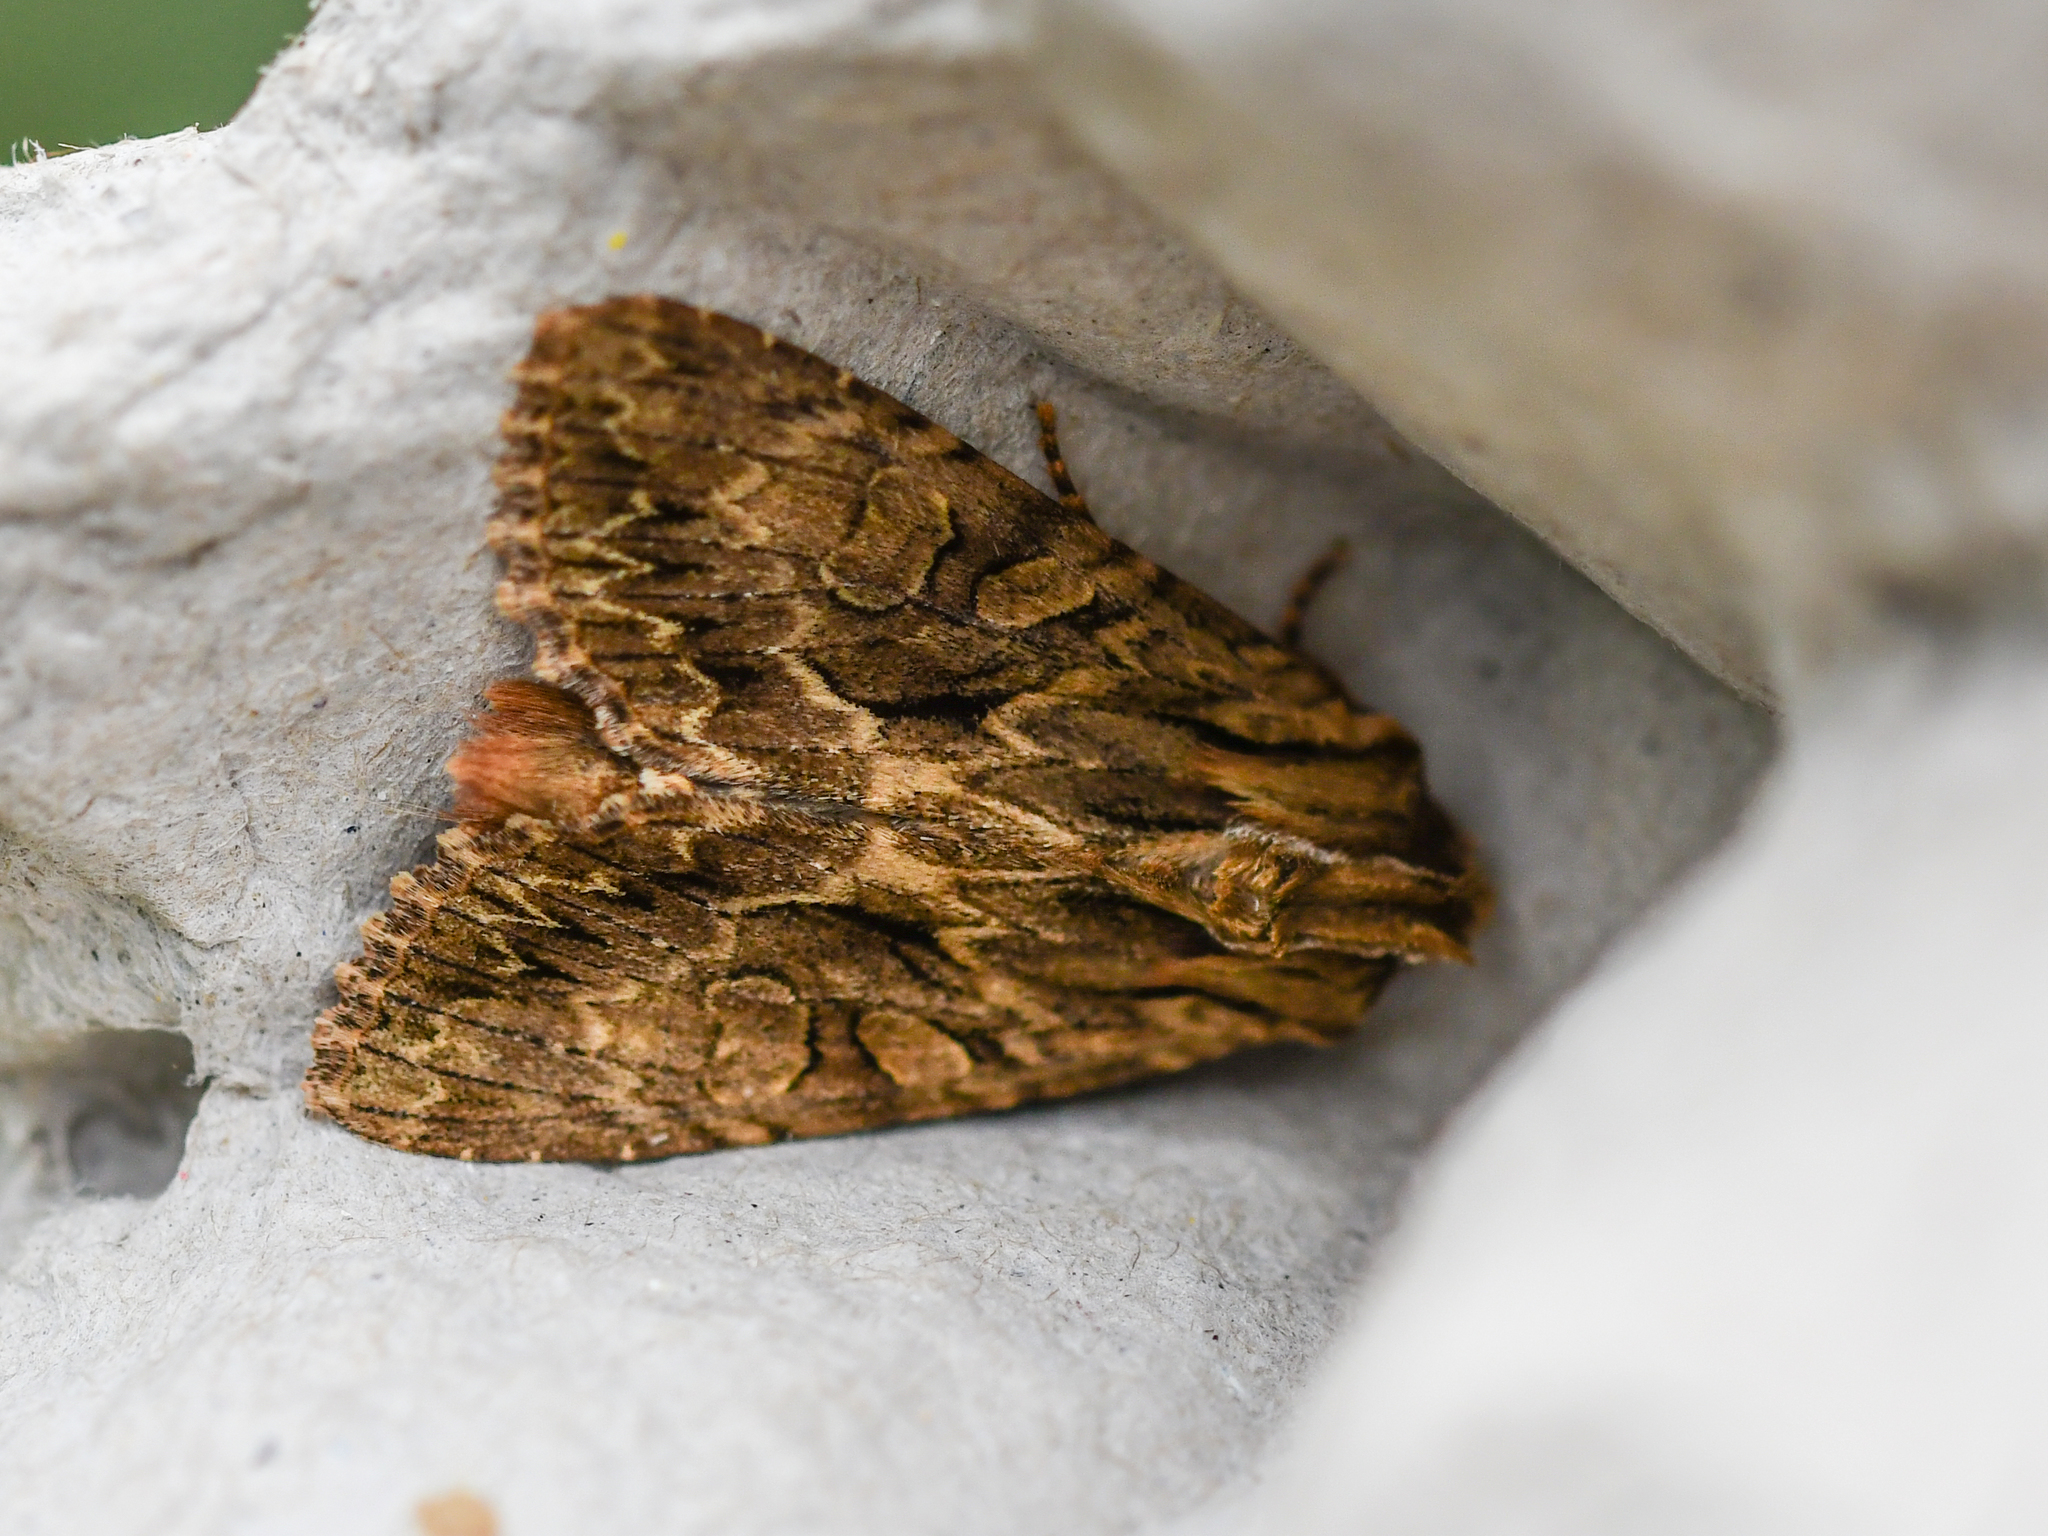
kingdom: Animalia
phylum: Arthropoda
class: Insecta
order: Lepidoptera
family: Noctuidae
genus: Apamea
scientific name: Apamea monoglypha
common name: Dark arches
